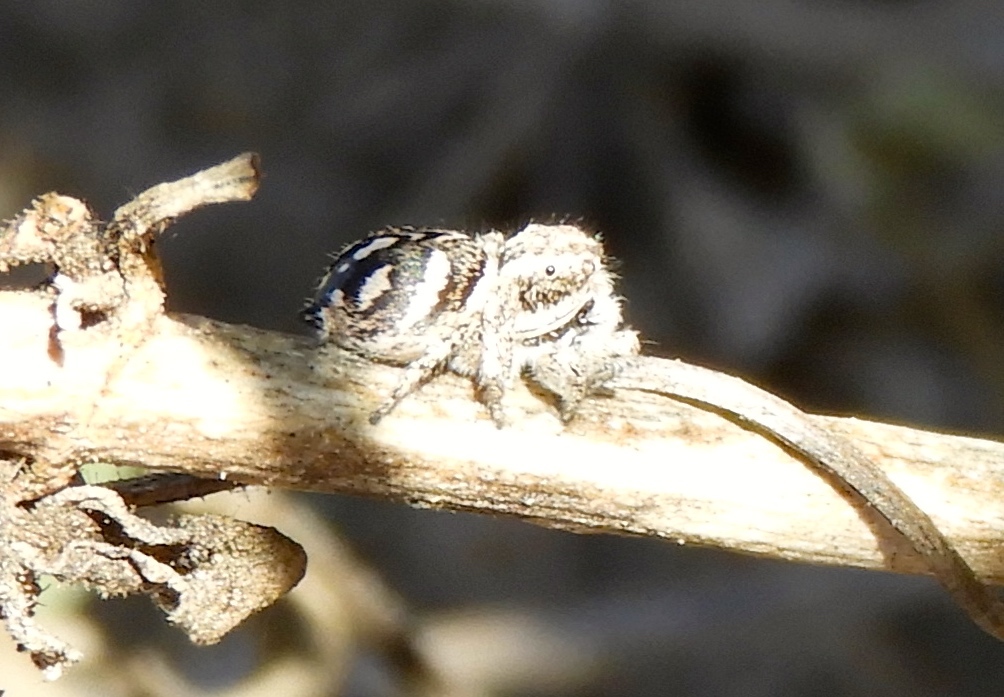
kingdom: Animalia
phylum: Arthropoda
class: Arachnida
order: Araneae
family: Salticidae
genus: Habronattus
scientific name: Habronattus contingens
